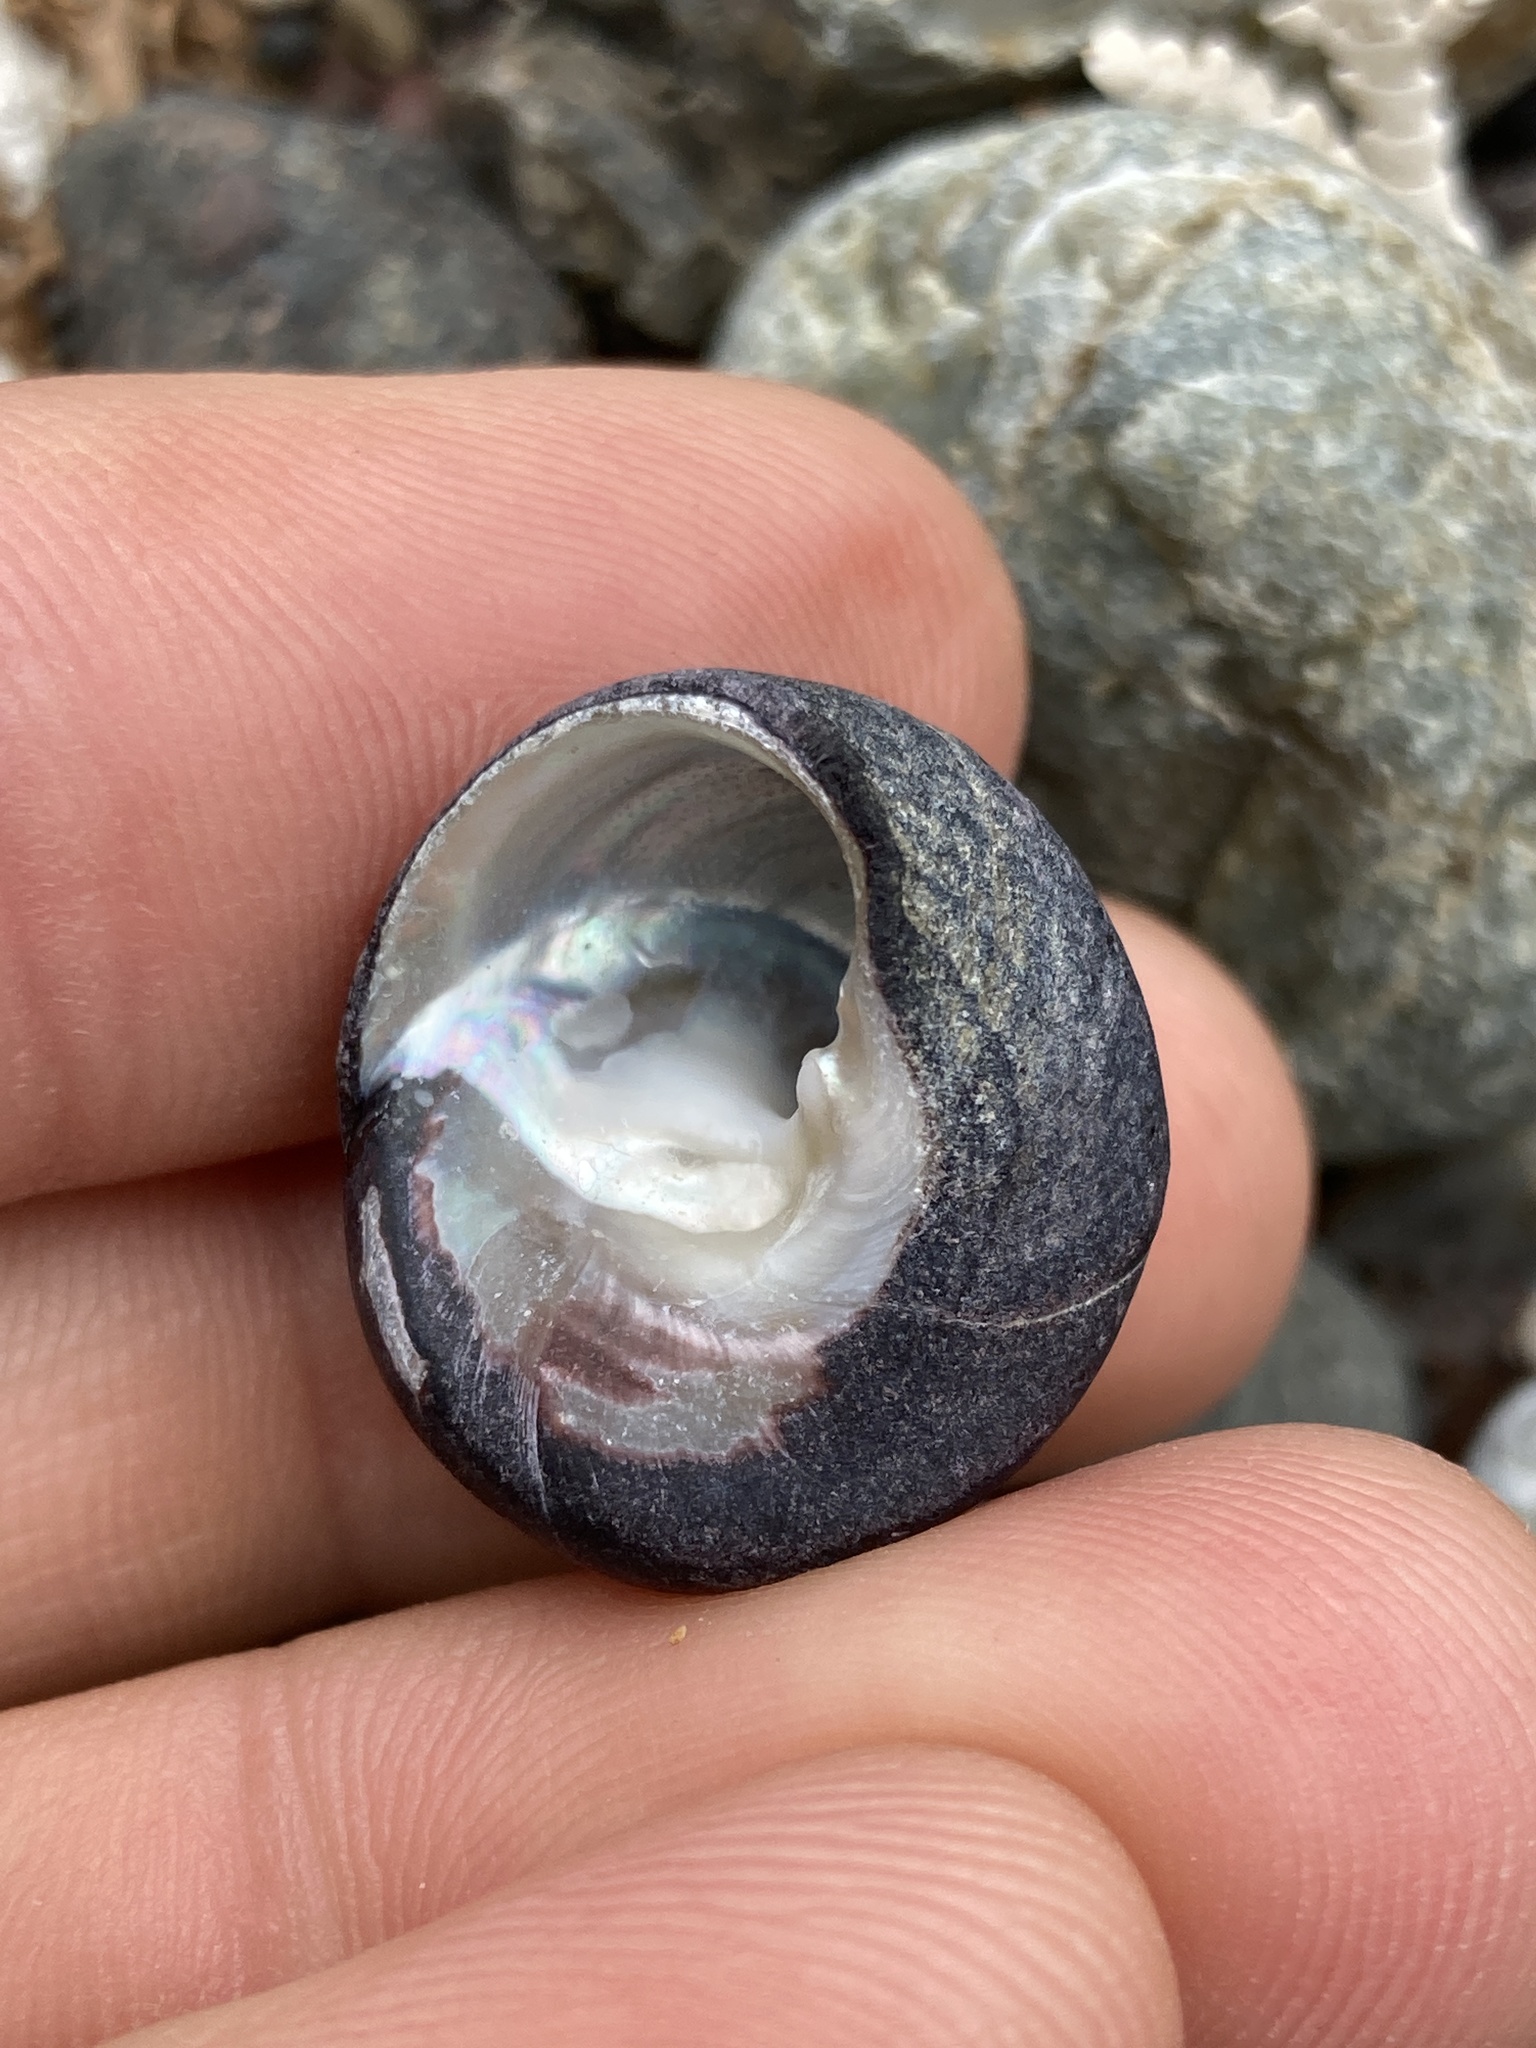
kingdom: Animalia
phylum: Mollusca
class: Gastropoda
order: Trochida
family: Tegulidae
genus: Tegula
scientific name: Tegula funebralis
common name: Black tegula
